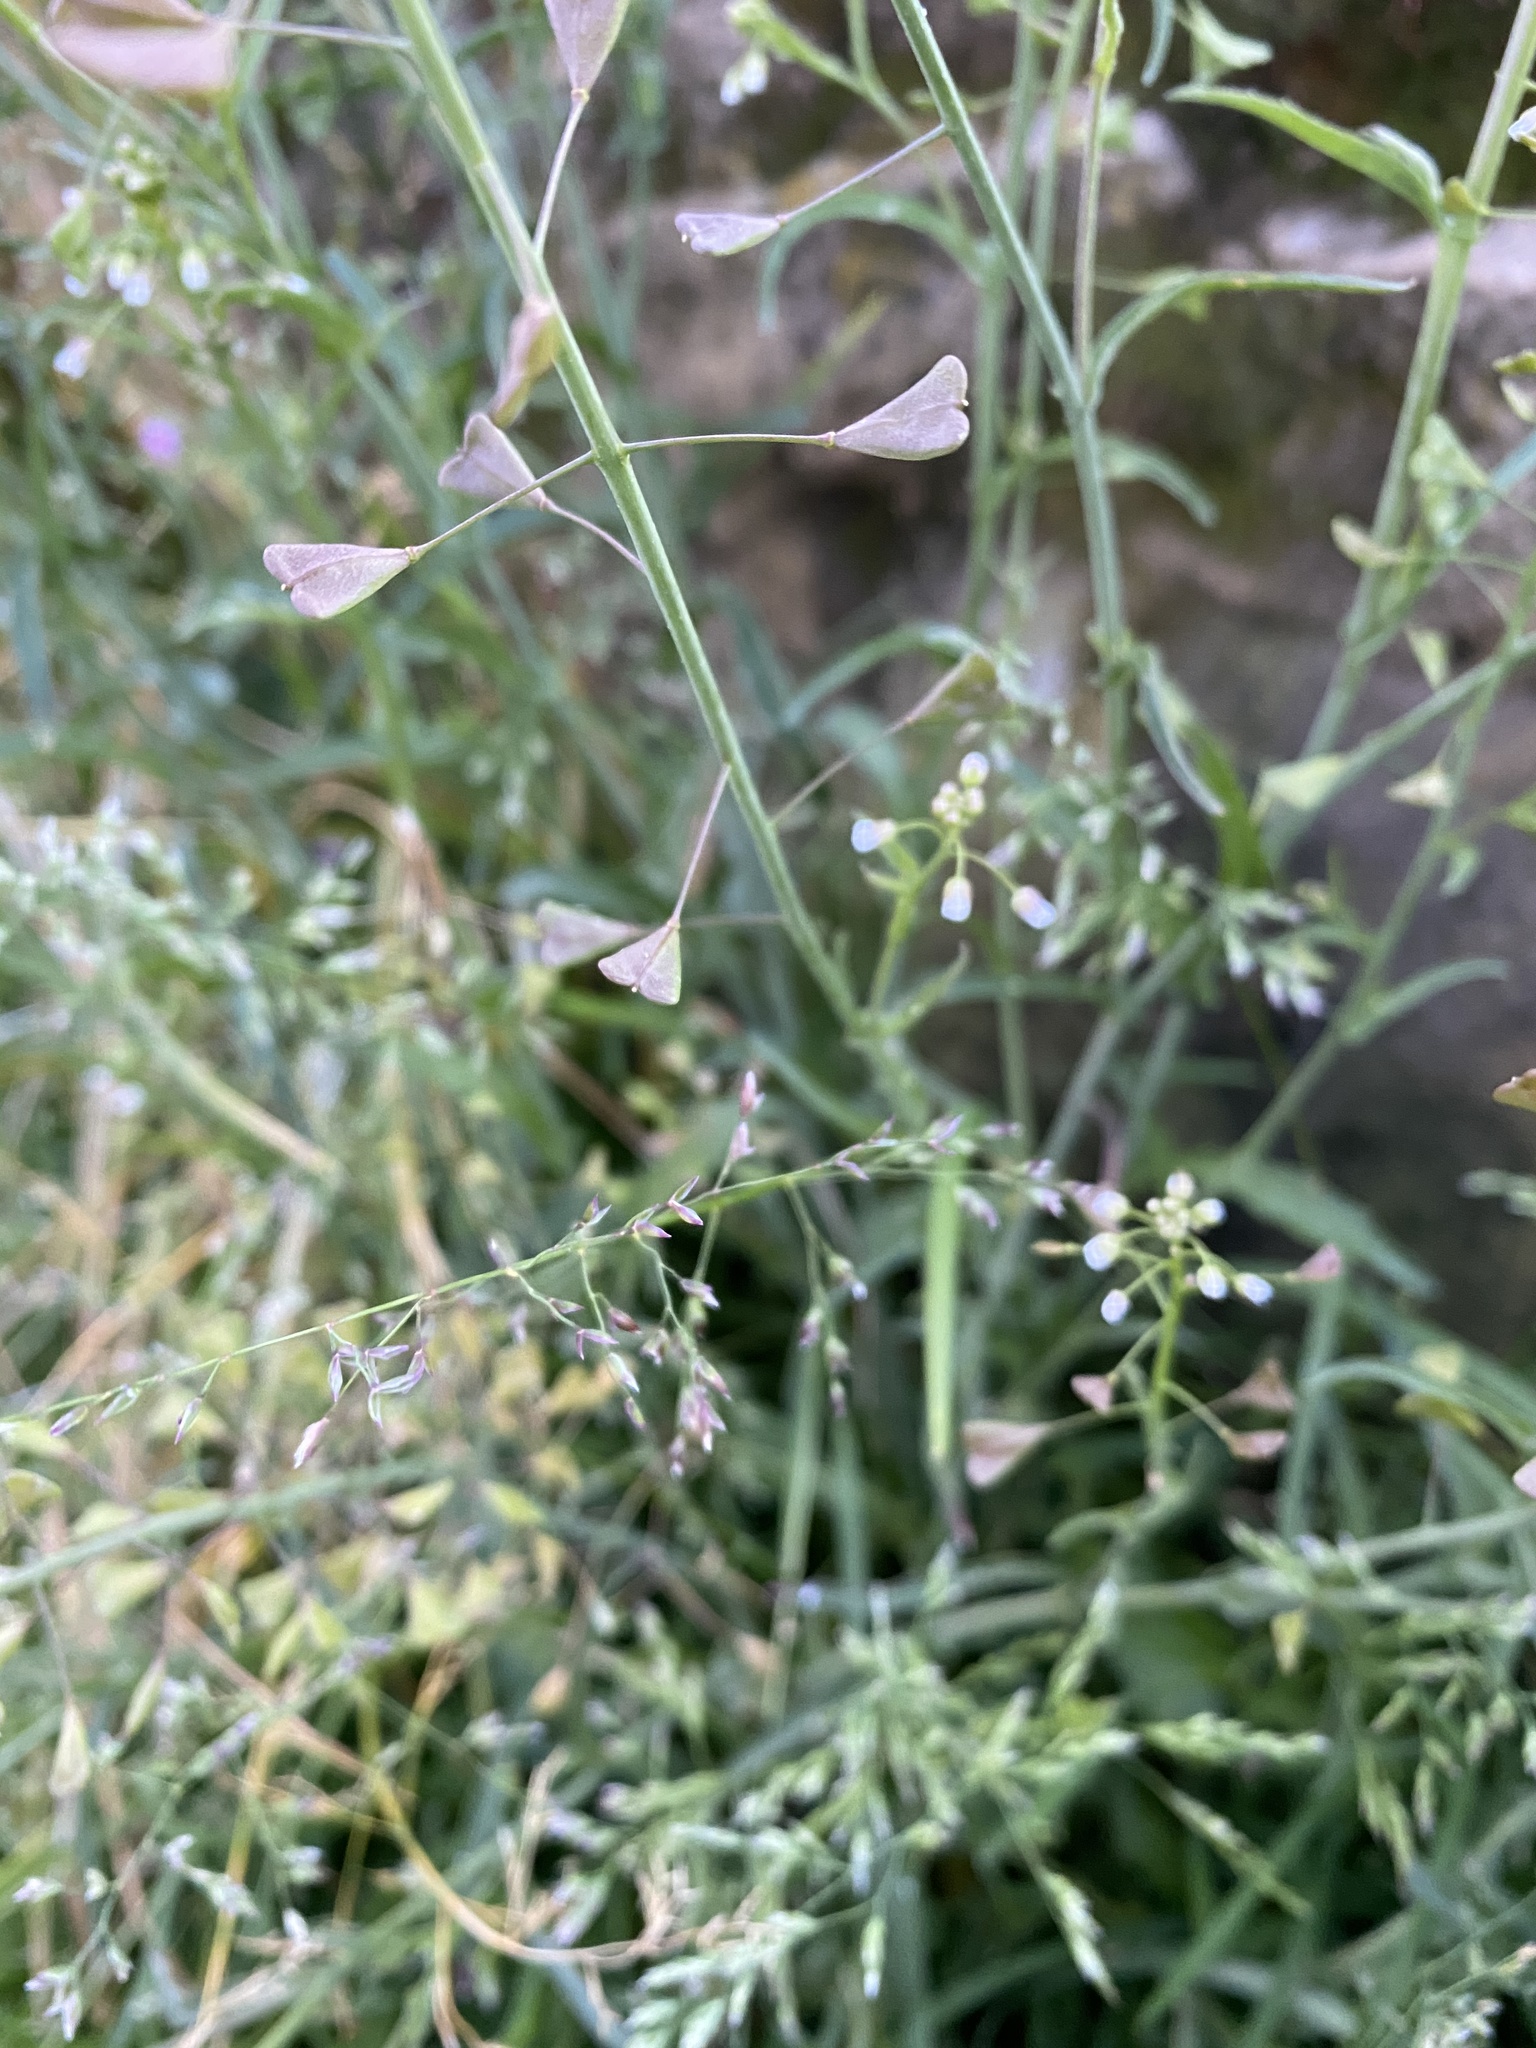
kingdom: Plantae
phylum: Tracheophyta
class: Magnoliopsida
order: Brassicales
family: Brassicaceae
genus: Capsella
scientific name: Capsella bursa-pastoris
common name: Shepherd's purse
